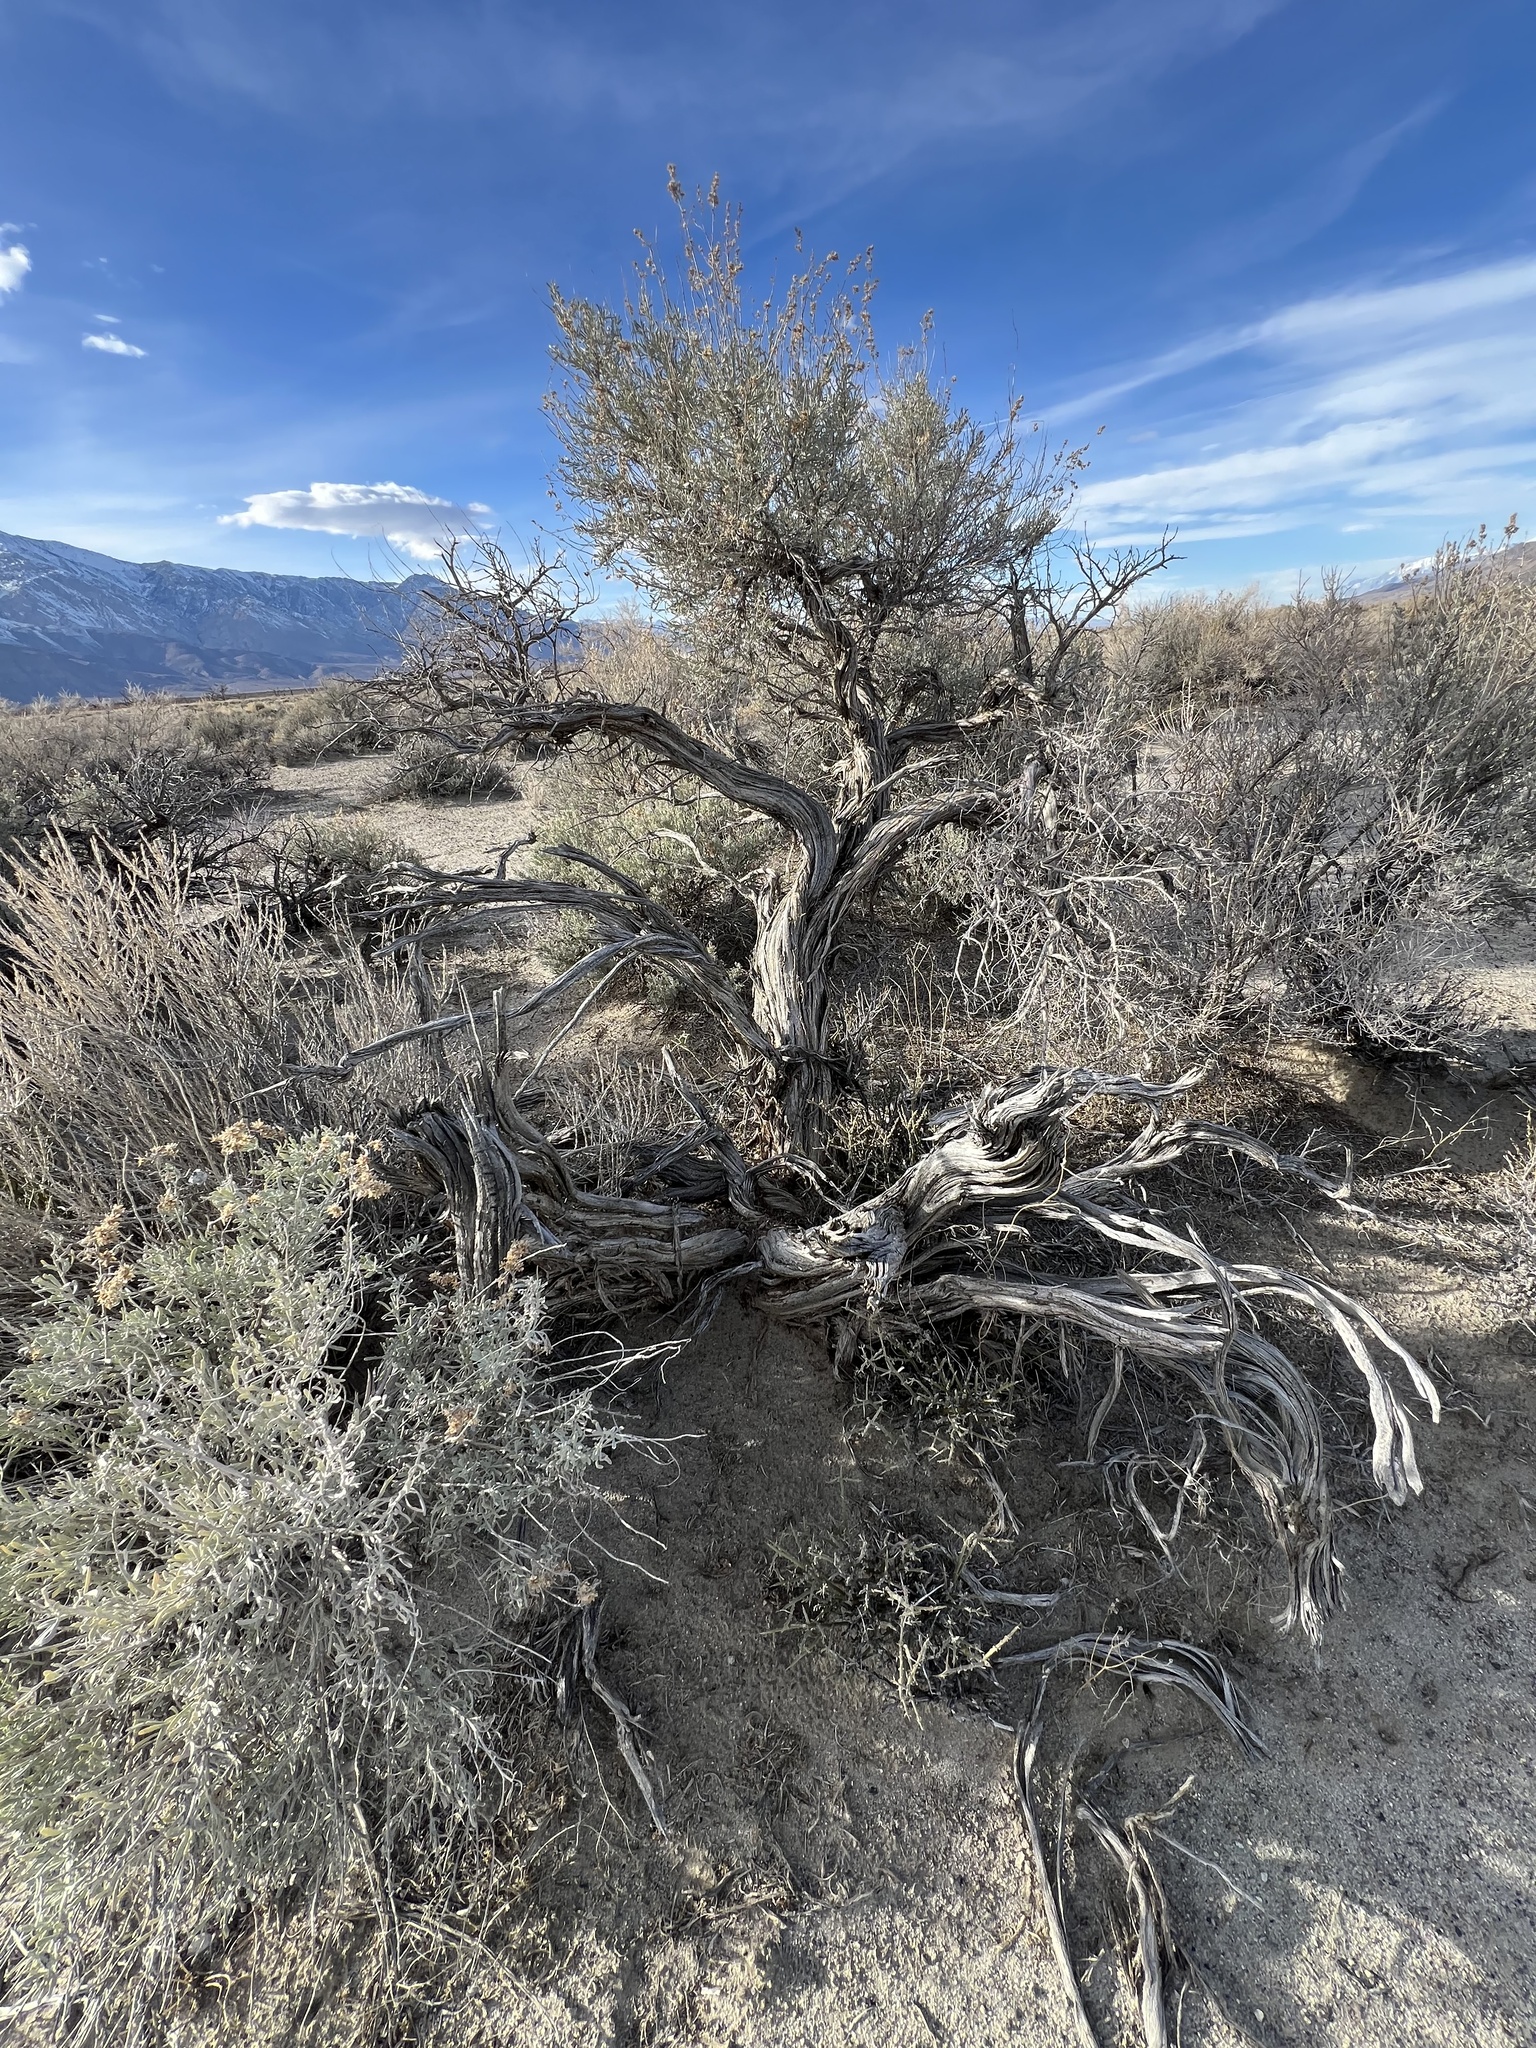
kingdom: Plantae
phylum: Tracheophyta
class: Magnoliopsida
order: Asterales
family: Asteraceae
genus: Artemisia
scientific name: Artemisia tridentata
